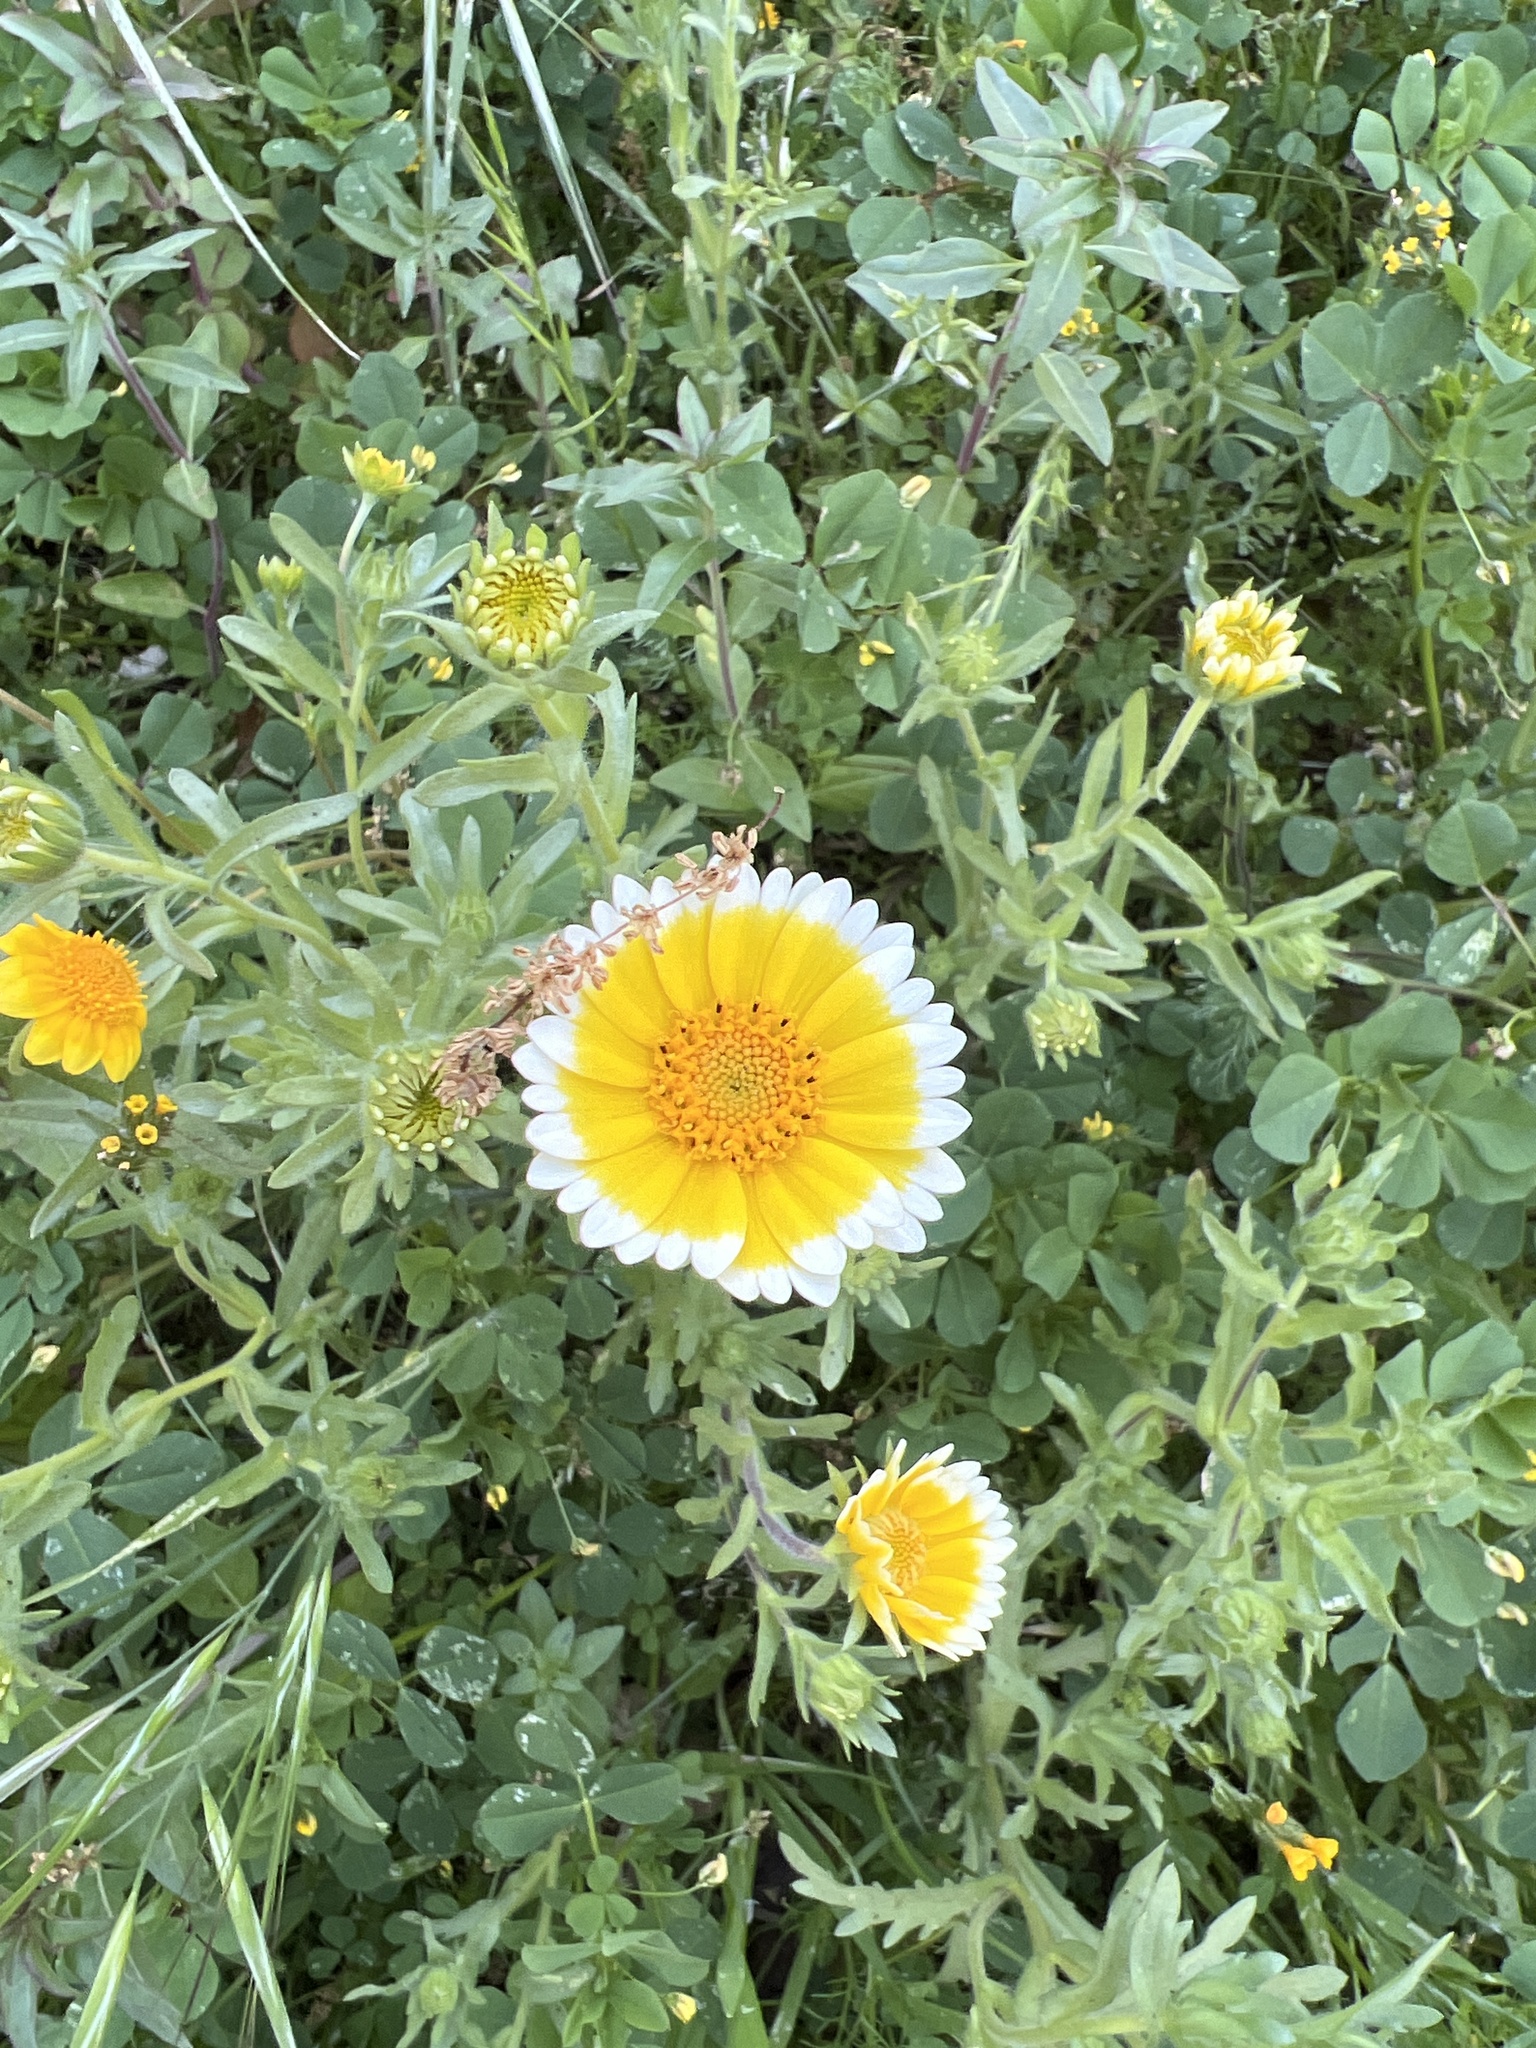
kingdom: Plantae
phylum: Tracheophyta
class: Magnoliopsida
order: Asterales
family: Asteraceae
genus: Layia
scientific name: Layia platyglossa
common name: Tidy-tips
